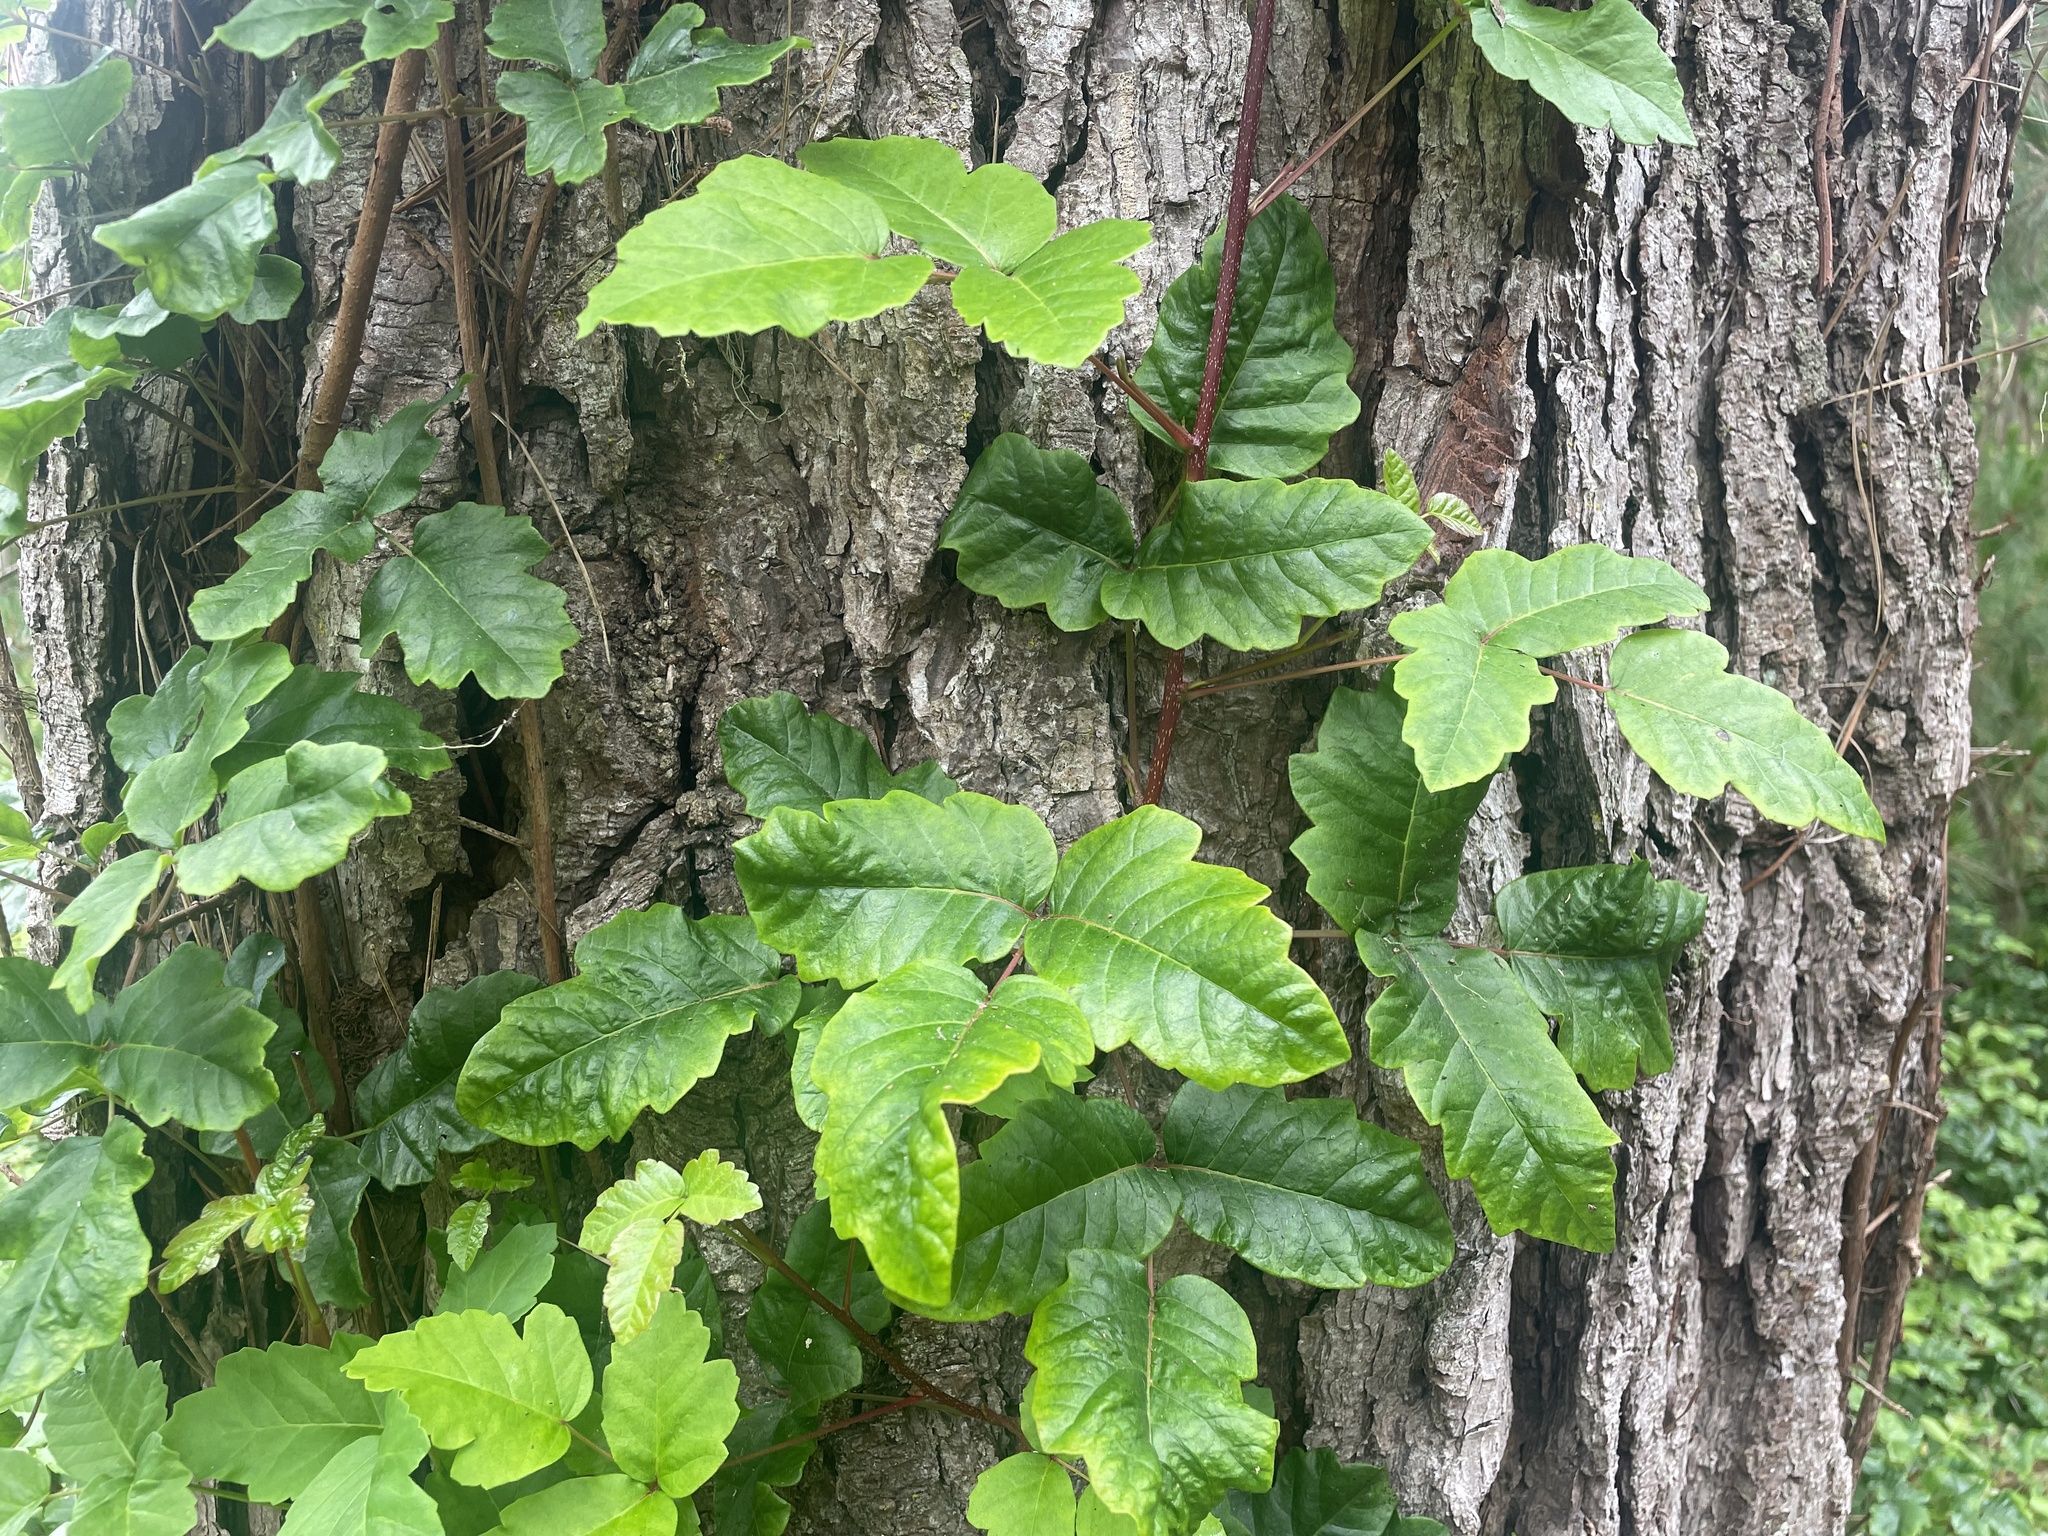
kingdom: Plantae
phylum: Tracheophyta
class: Magnoliopsida
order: Sapindales
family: Anacardiaceae
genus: Toxicodendron
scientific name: Toxicodendron diversilobum
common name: Pacific poison-oak
